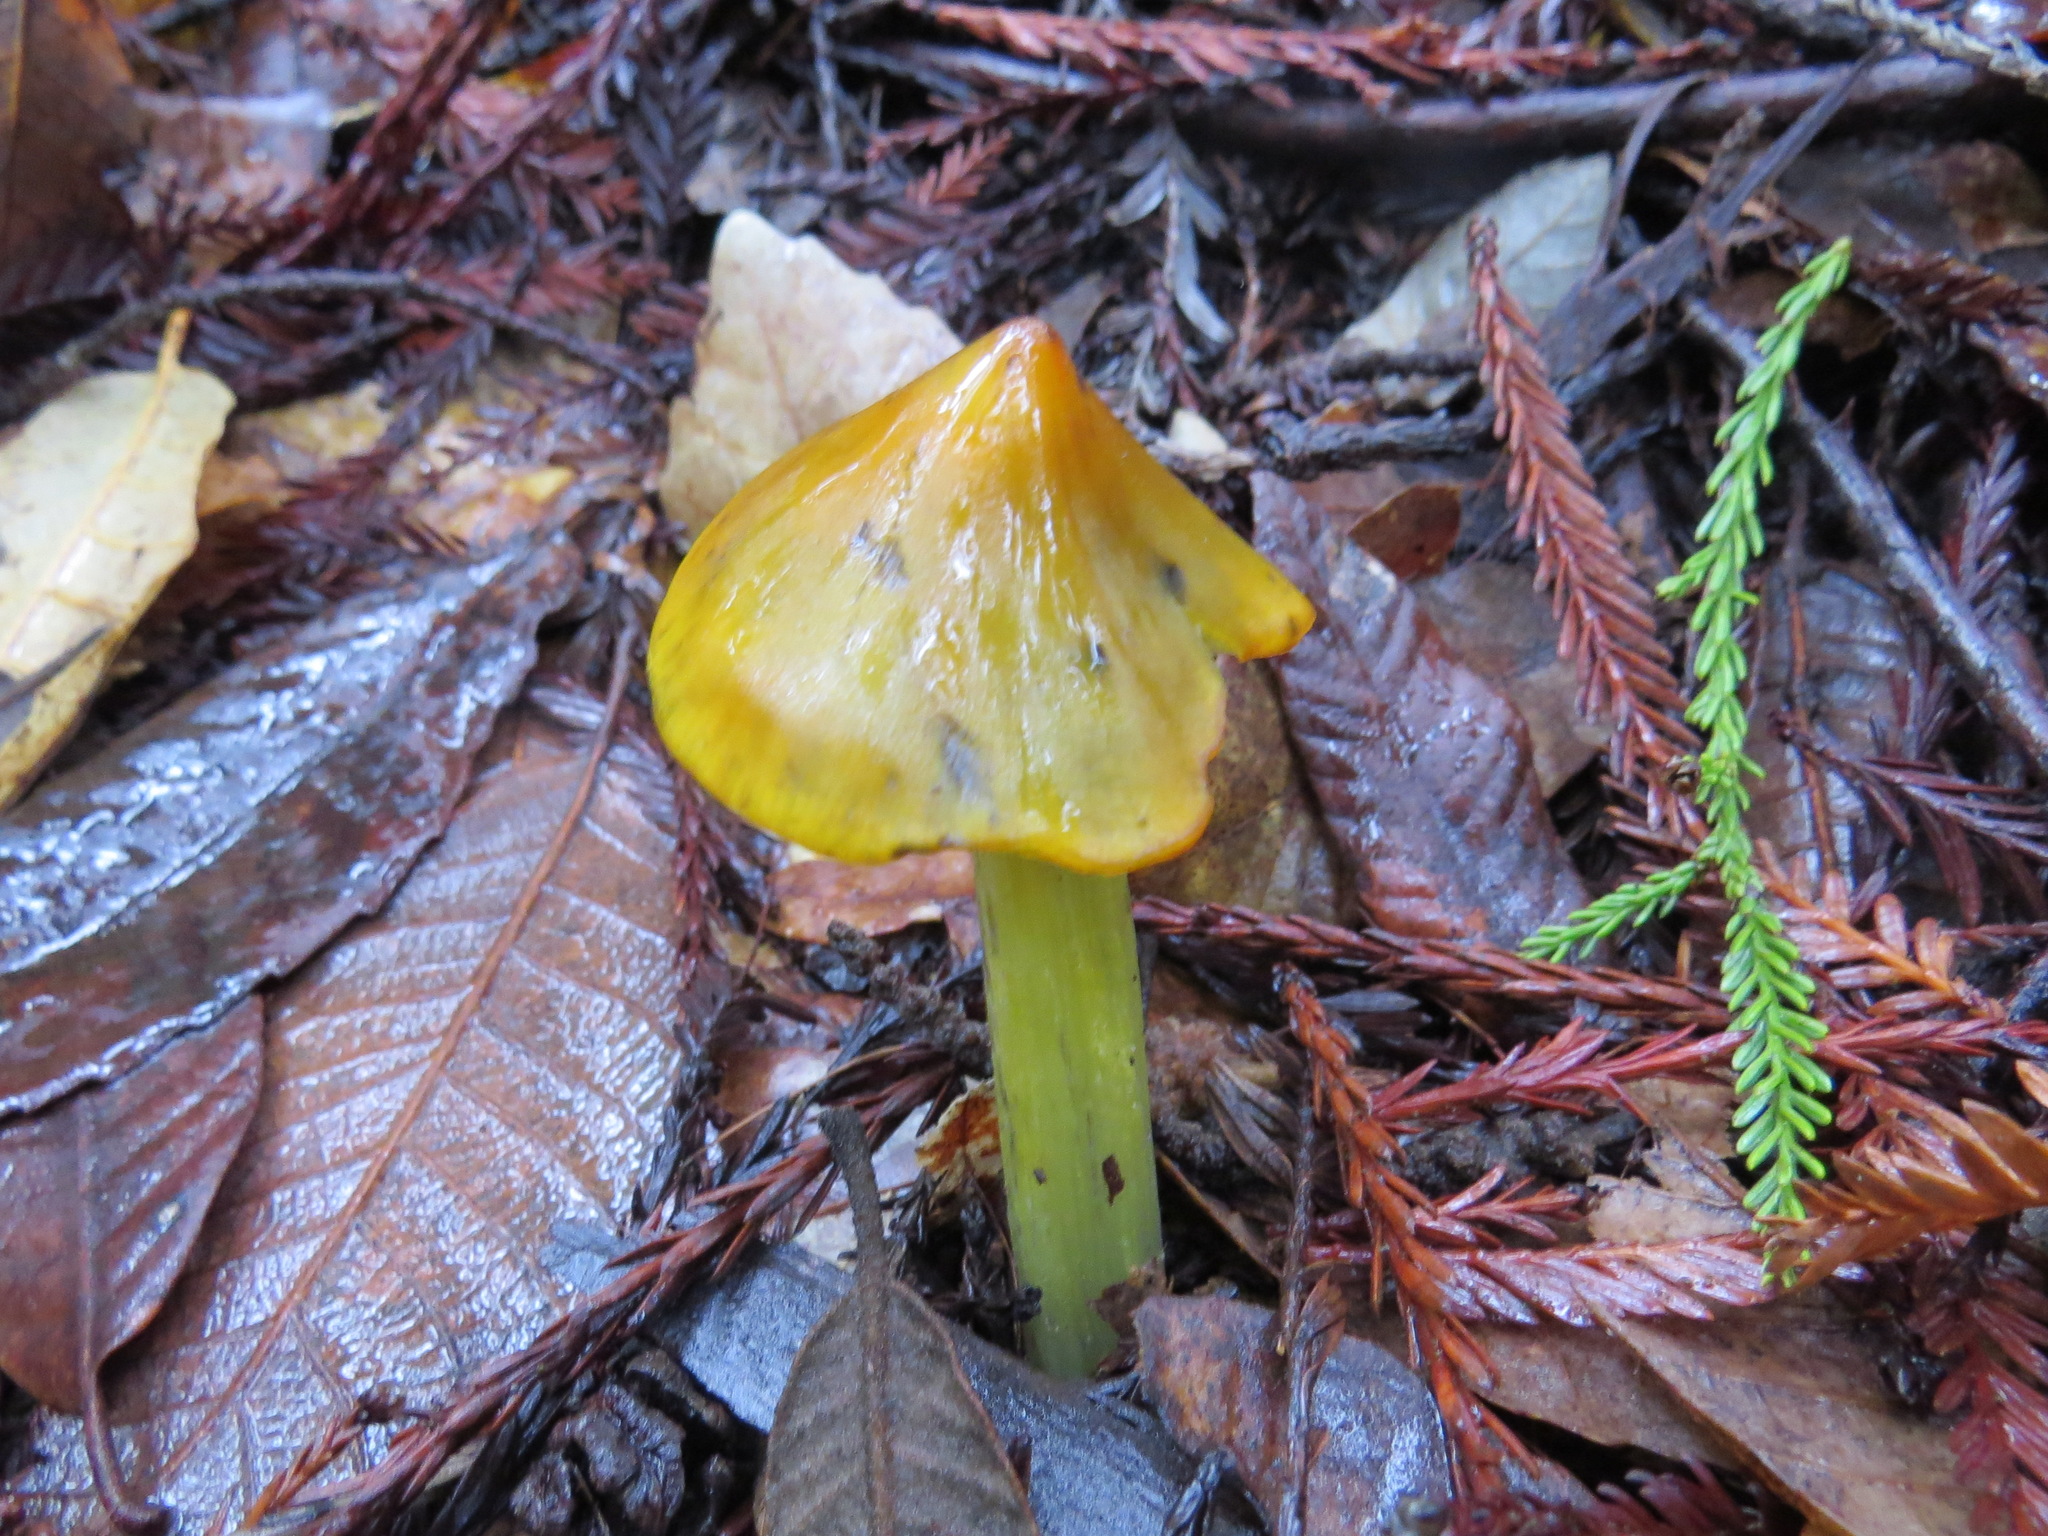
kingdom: Fungi
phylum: Basidiomycota
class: Agaricomycetes
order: Agaricales
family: Hygrophoraceae
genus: Hygrocybe
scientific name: Hygrocybe singeri
